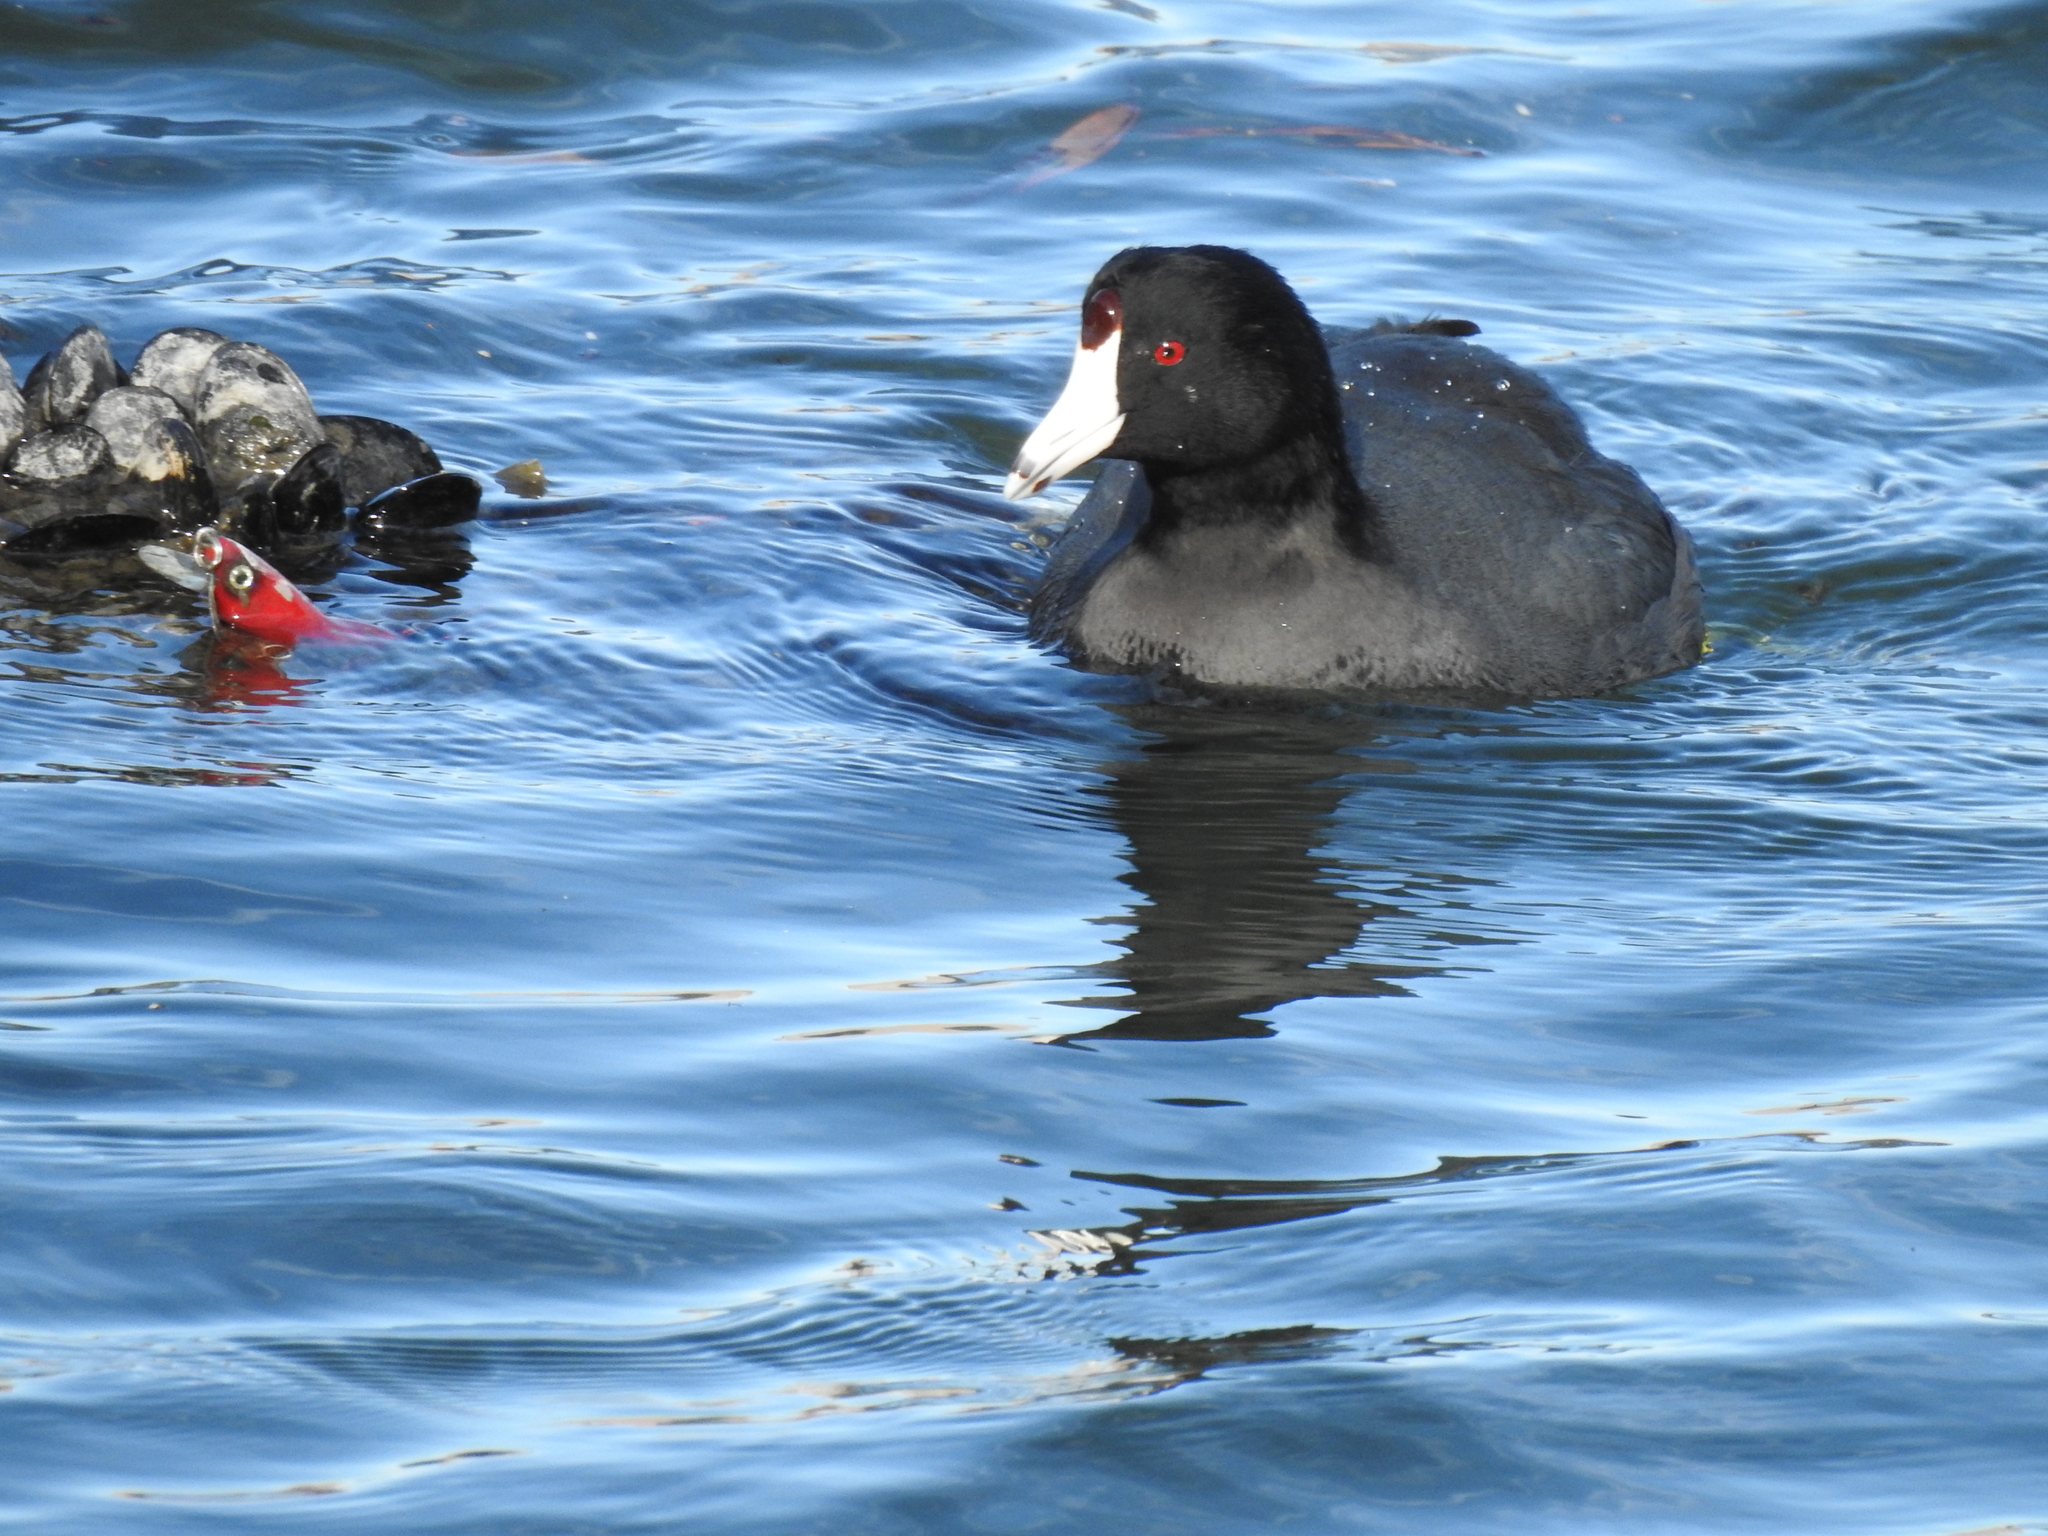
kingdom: Animalia
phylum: Chordata
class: Aves
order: Gruiformes
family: Rallidae
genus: Fulica
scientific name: Fulica americana
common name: American coot
